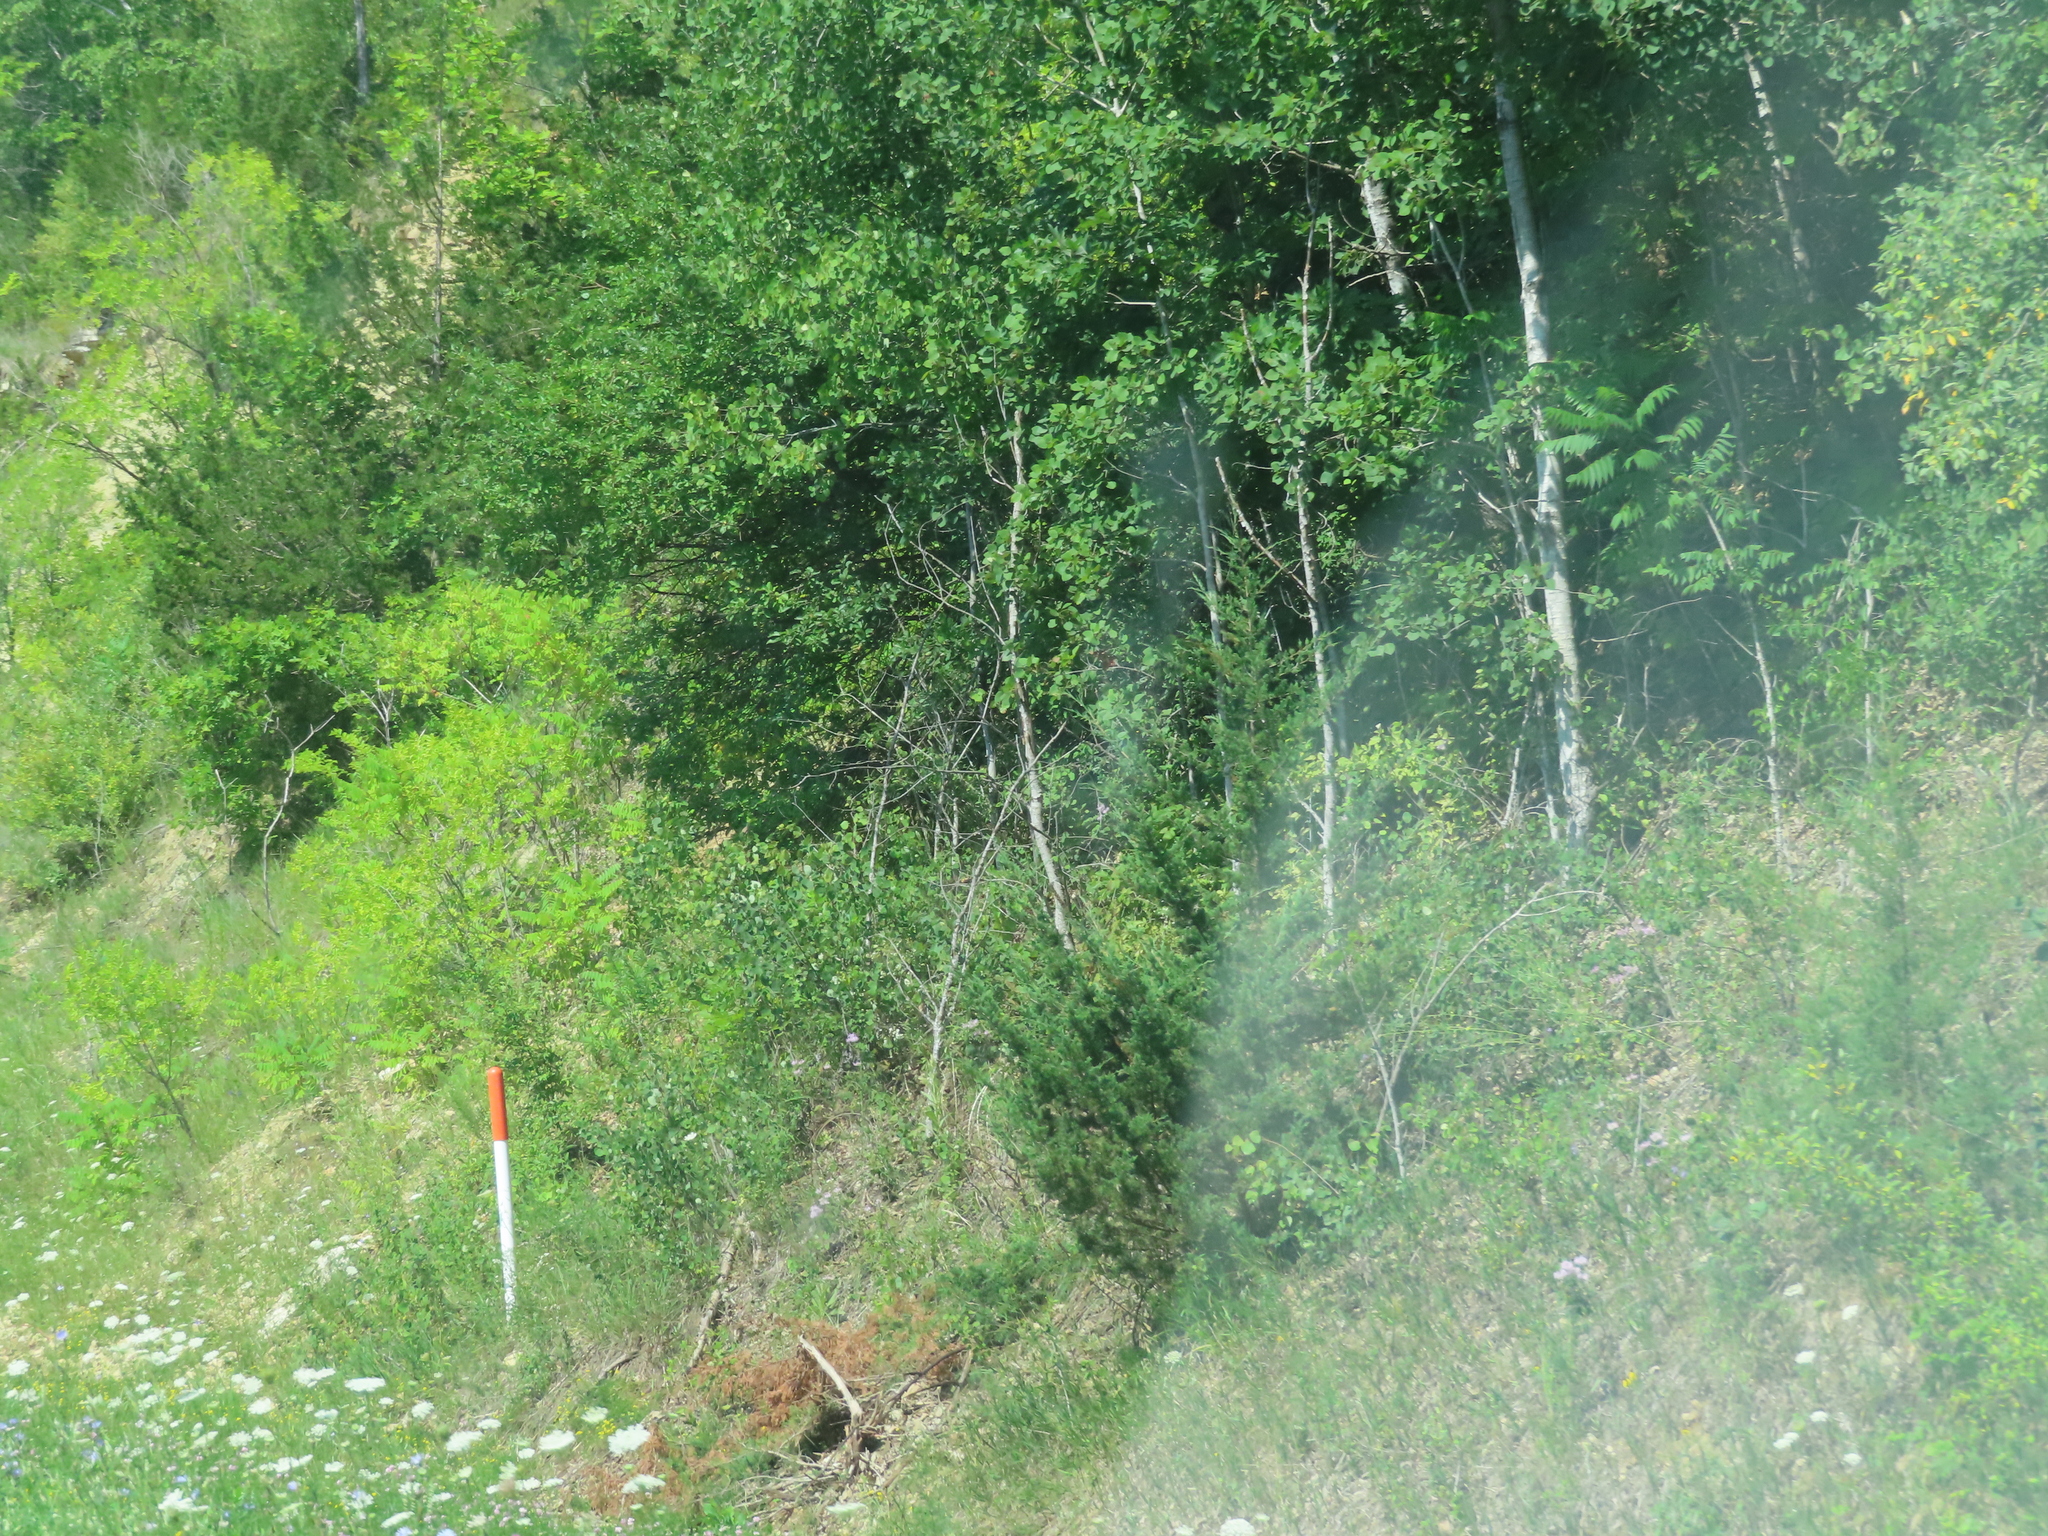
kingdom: Plantae
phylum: Tracheophyta
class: Magnoliopsida
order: Malpighiales
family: Salicaceae
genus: Populus
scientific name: Populus tremuloides
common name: Quaking aspen
